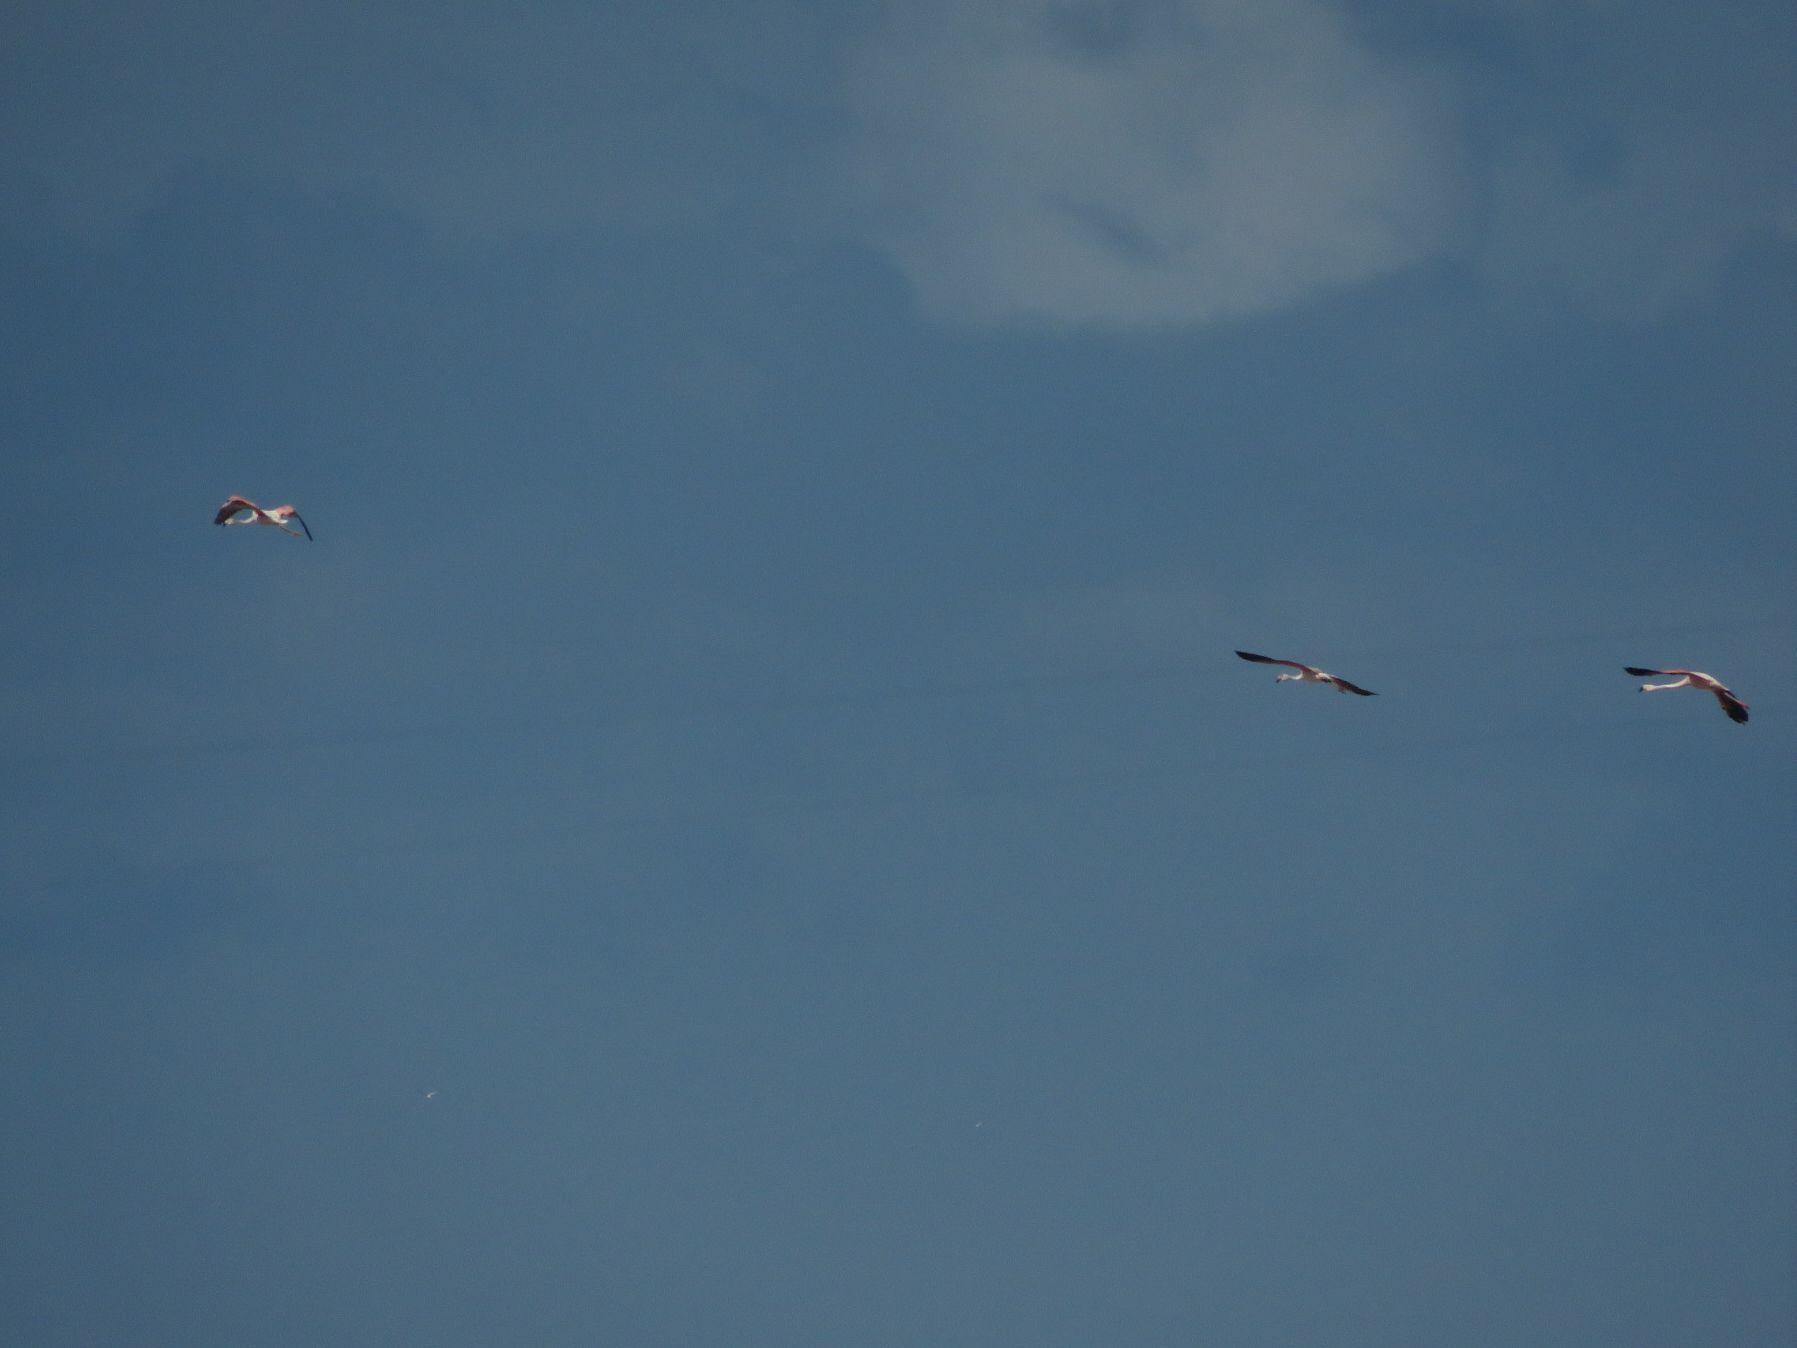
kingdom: Animalia
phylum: Chordata
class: Aves
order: Phoenicopteriformes
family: Phoenicopteridae
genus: Phoenicopterus
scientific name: Phoenicopterus chilensis
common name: Chilean flamingo
